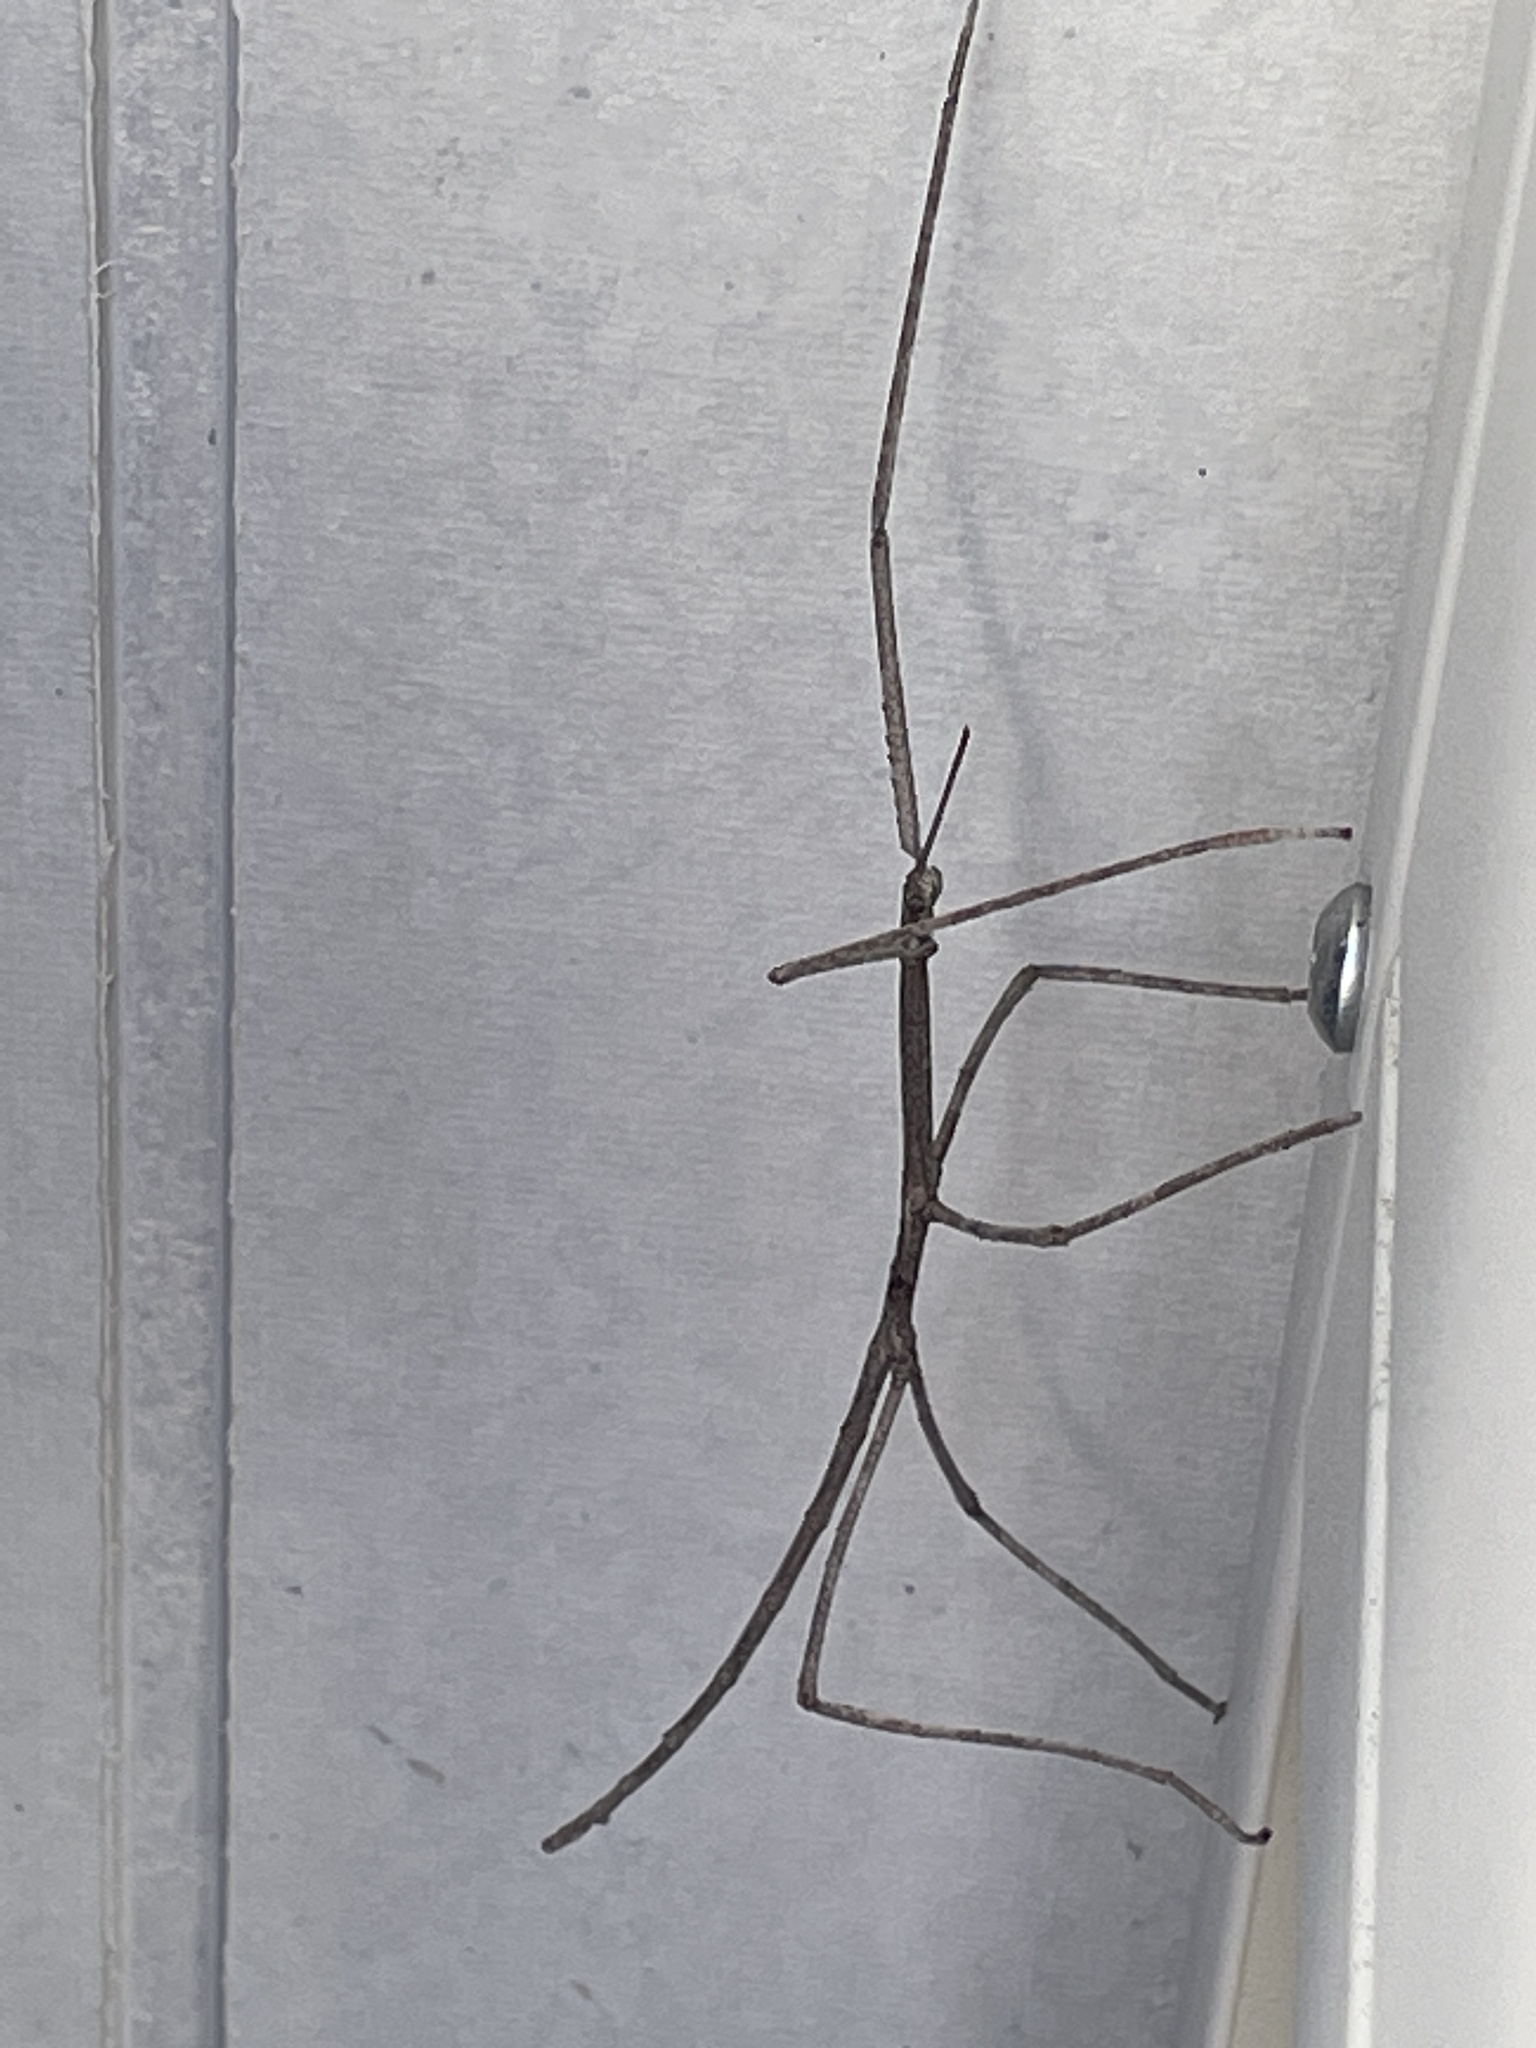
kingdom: Animalia
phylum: Arthropoda
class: Insecta
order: Phasmida
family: Phasmatidae
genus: Ctenomorpha
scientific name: Ctenomorpha marginipennis
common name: Margined-winged stick-insect
